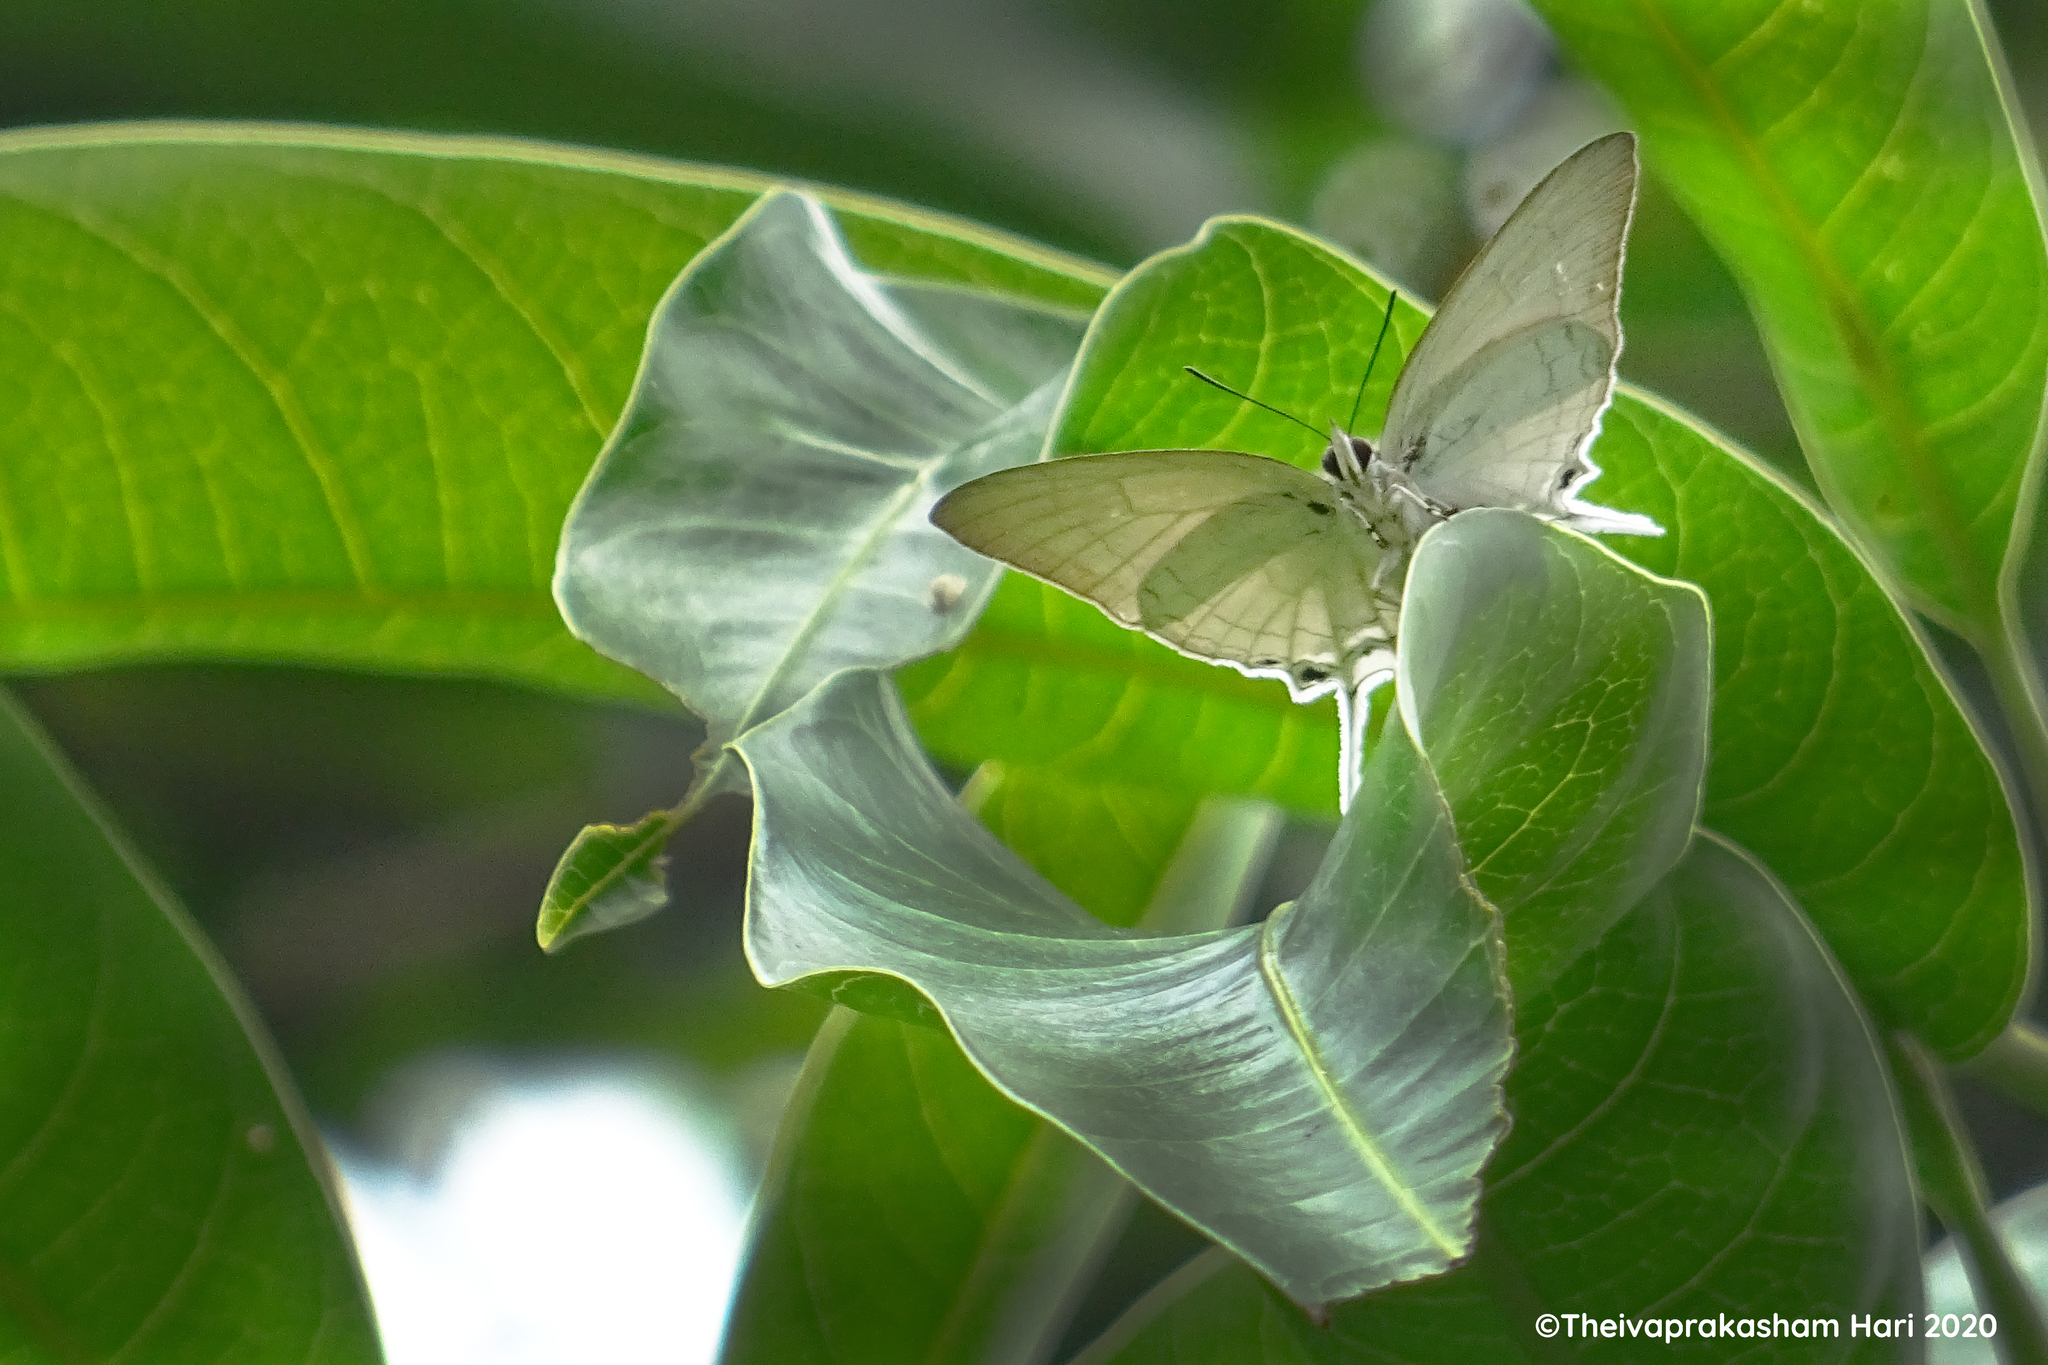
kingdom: Animalia
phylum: Arthropoda
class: Insecta
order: Lepidoptera
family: Lycaenidae
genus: Cheritra
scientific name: Cheritra freja
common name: Common imperial
